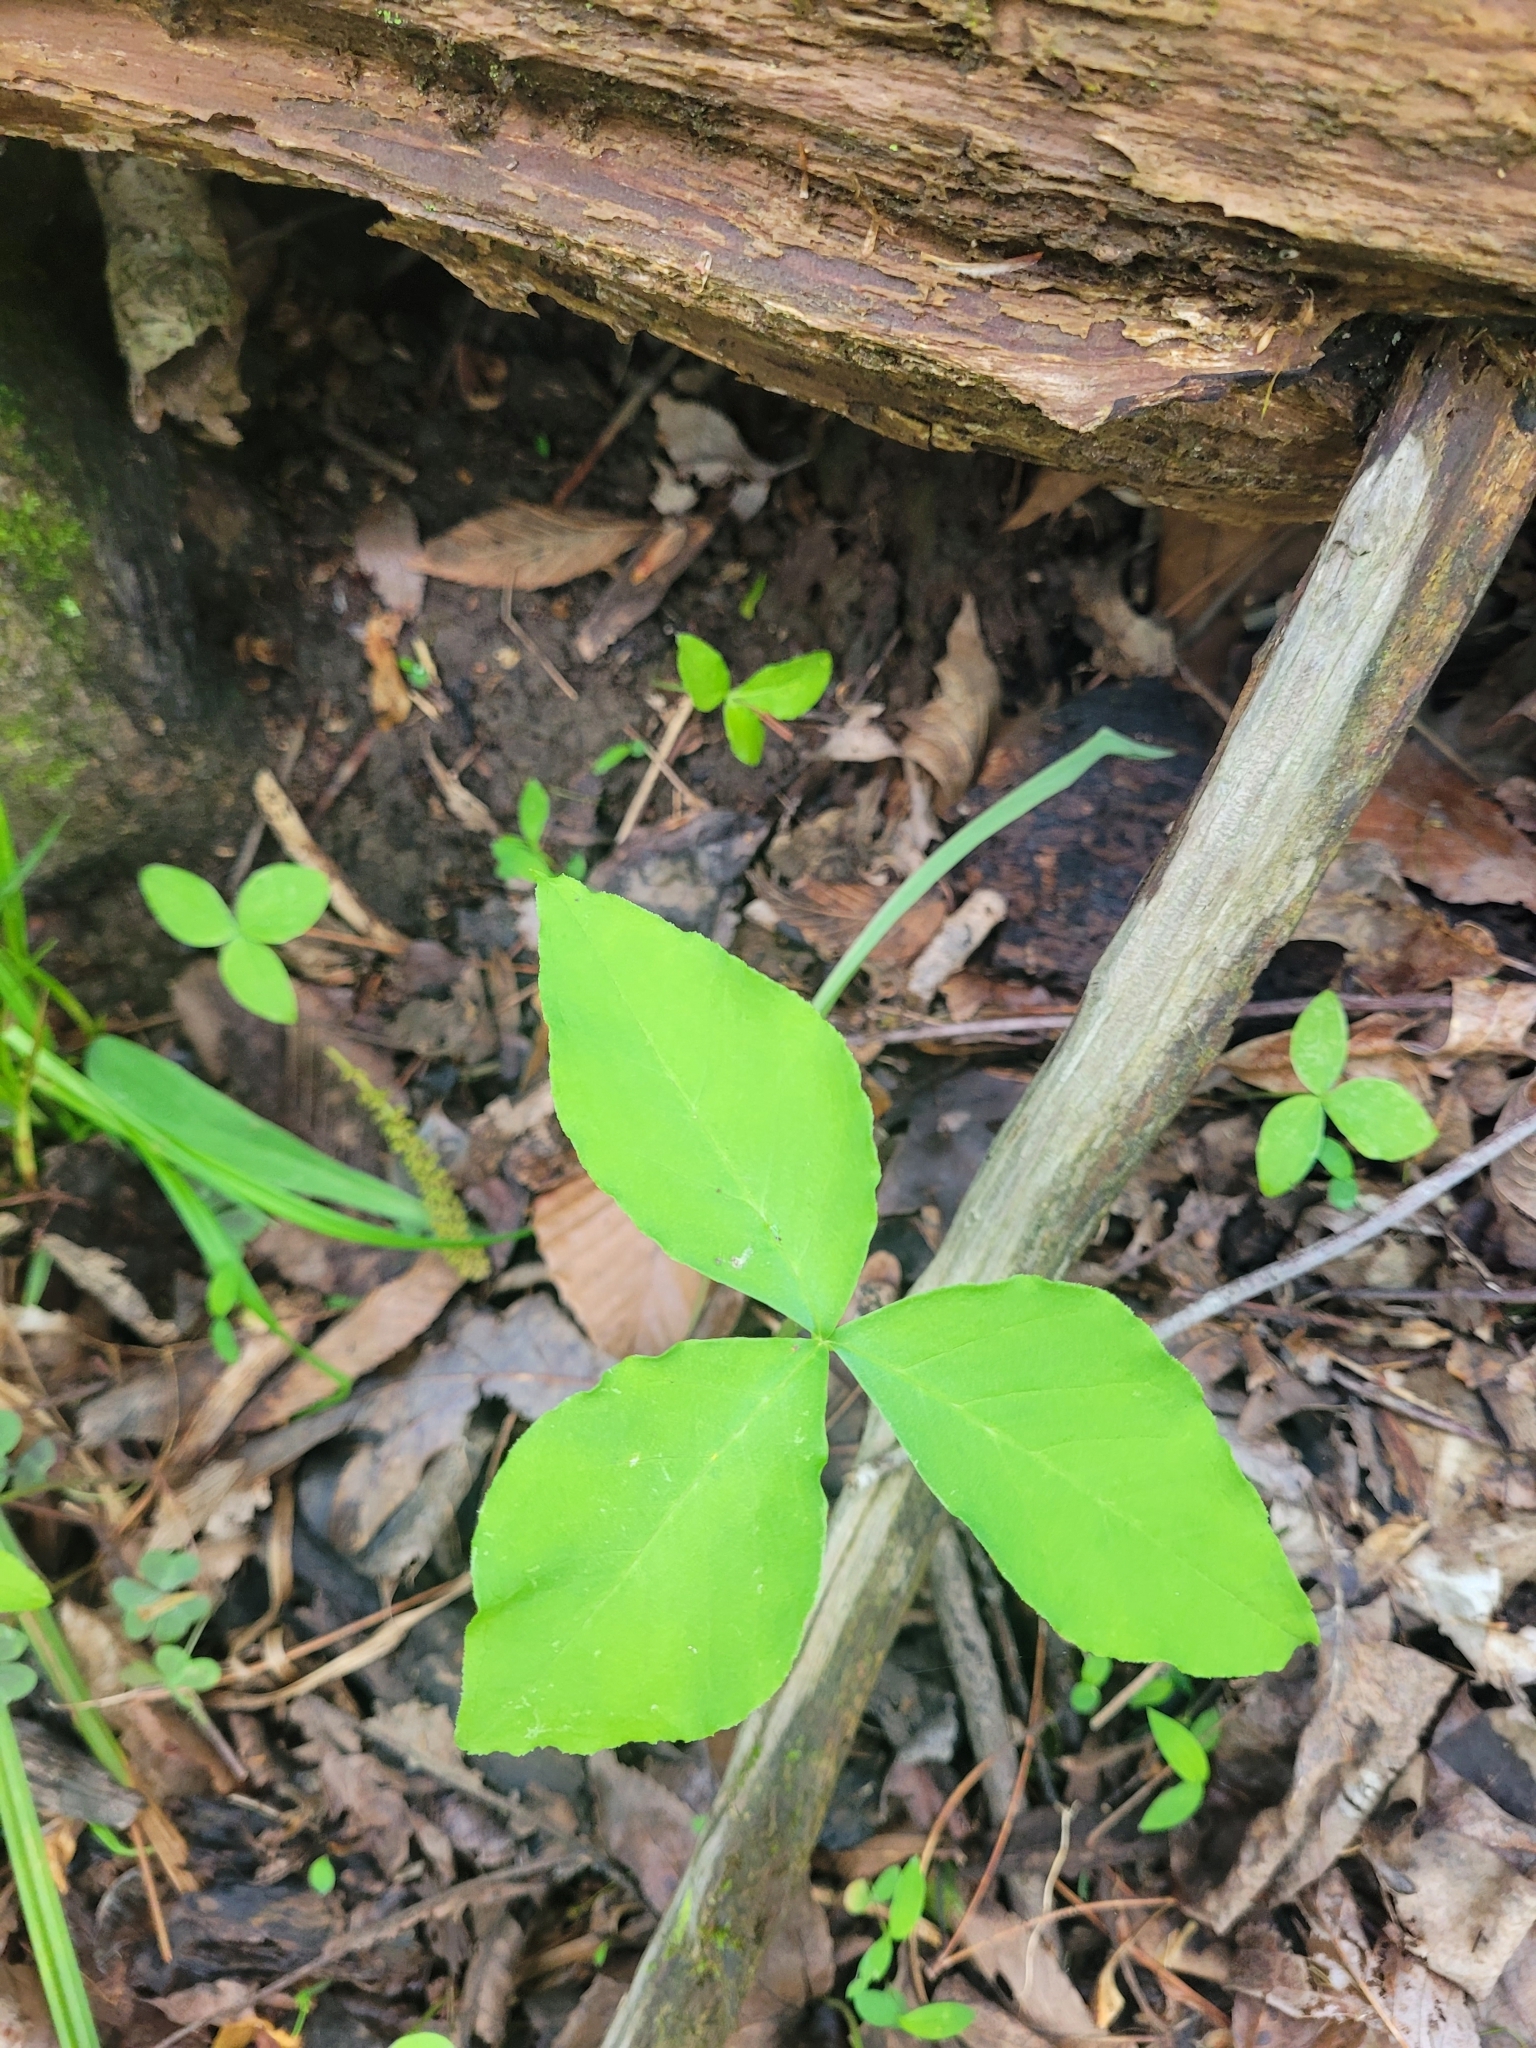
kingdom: Plantae
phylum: Tracheophyta
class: Liliopsida
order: Alismatales
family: Araceae
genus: Arisaema
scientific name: Arisaema
